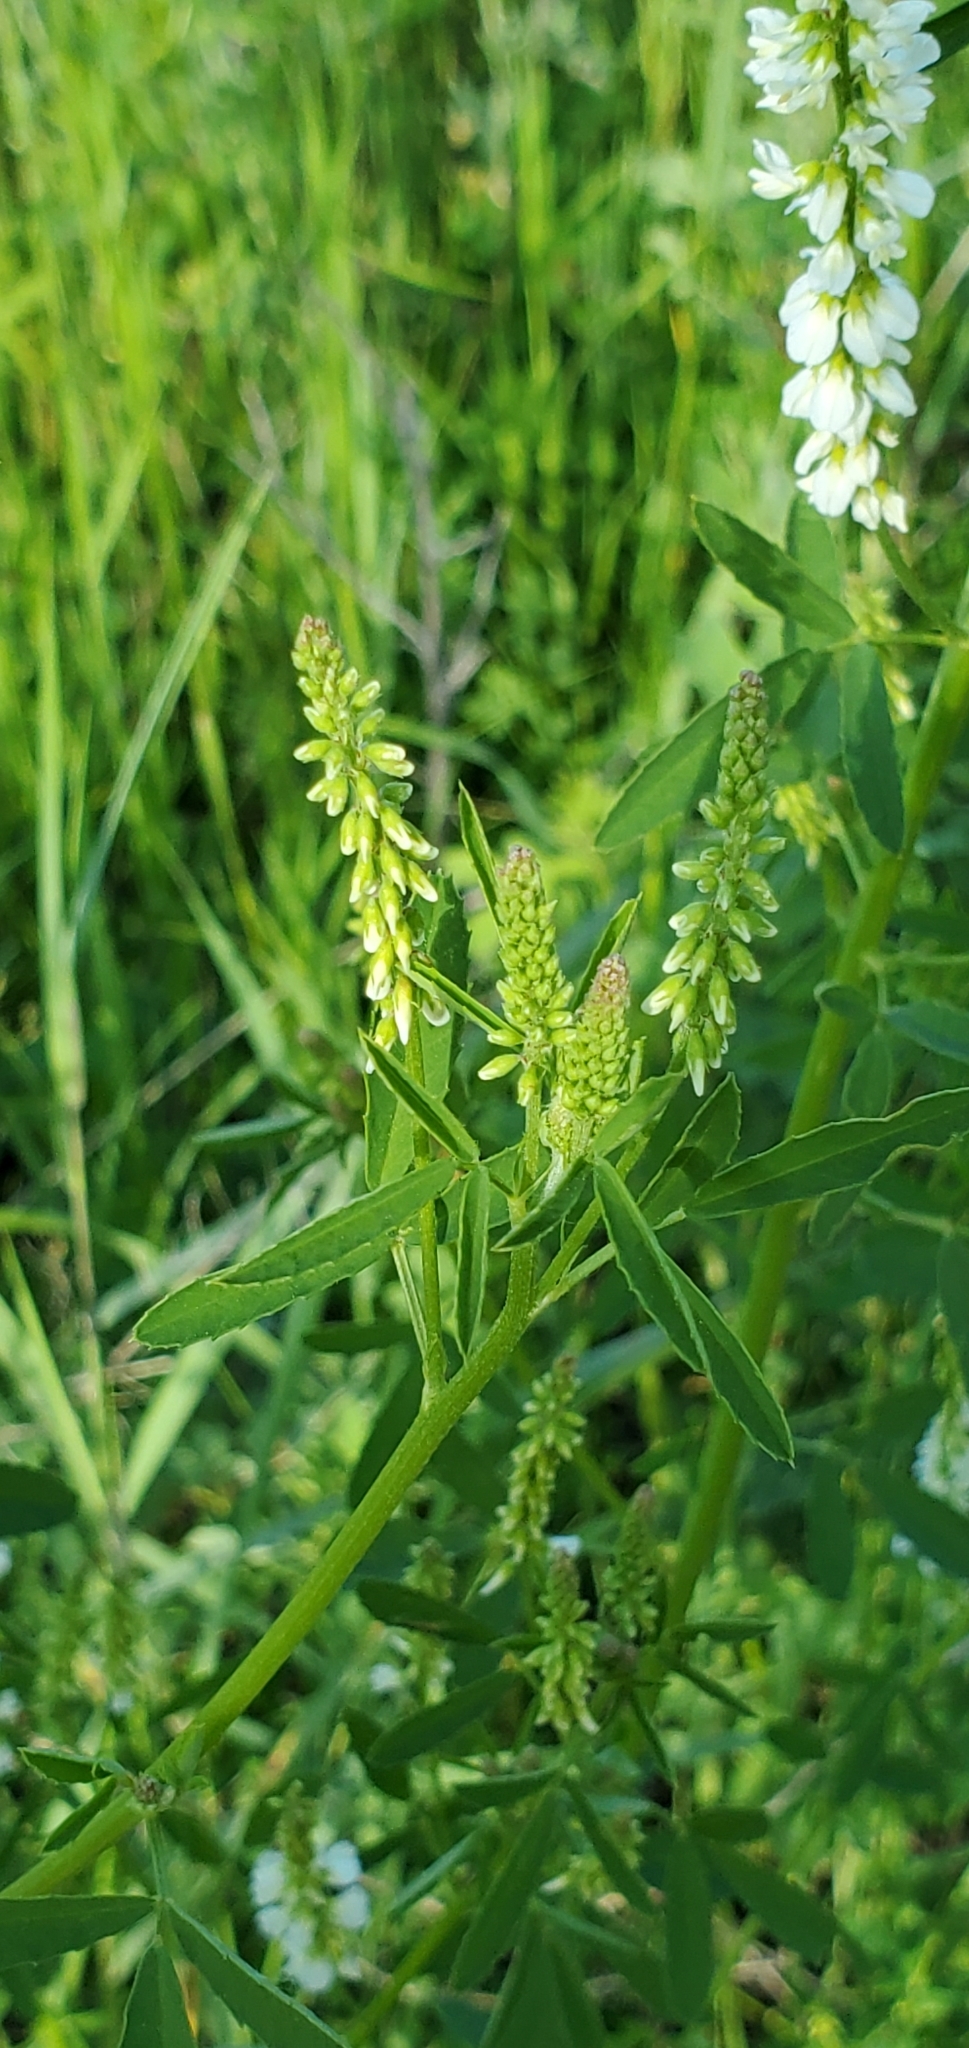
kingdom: Plantae
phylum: Tracheophyta
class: Magnoliopsida
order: Fabales
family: Fabaceae
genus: Melilotus
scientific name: Melilotus albus
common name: White melilot
